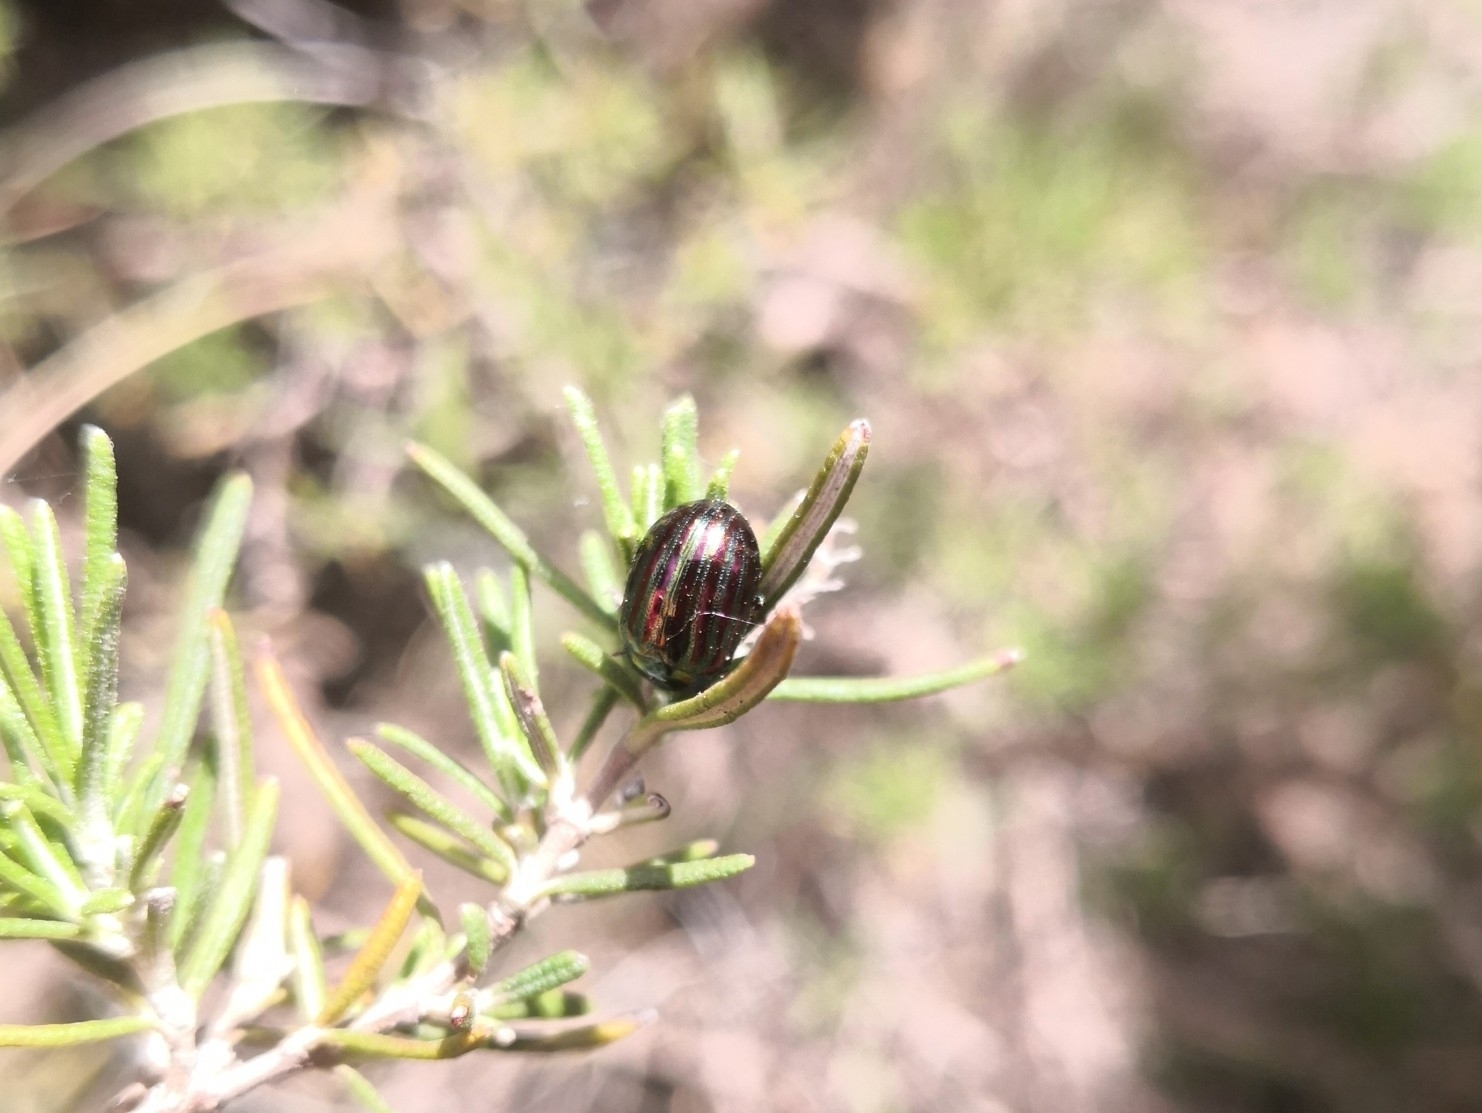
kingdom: Animalia
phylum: Arthropoda
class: Insecta
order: Coleoptera
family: Chrysomelidae
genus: Chrysolina
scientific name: Chrysolina americana
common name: Rosemary beetle
